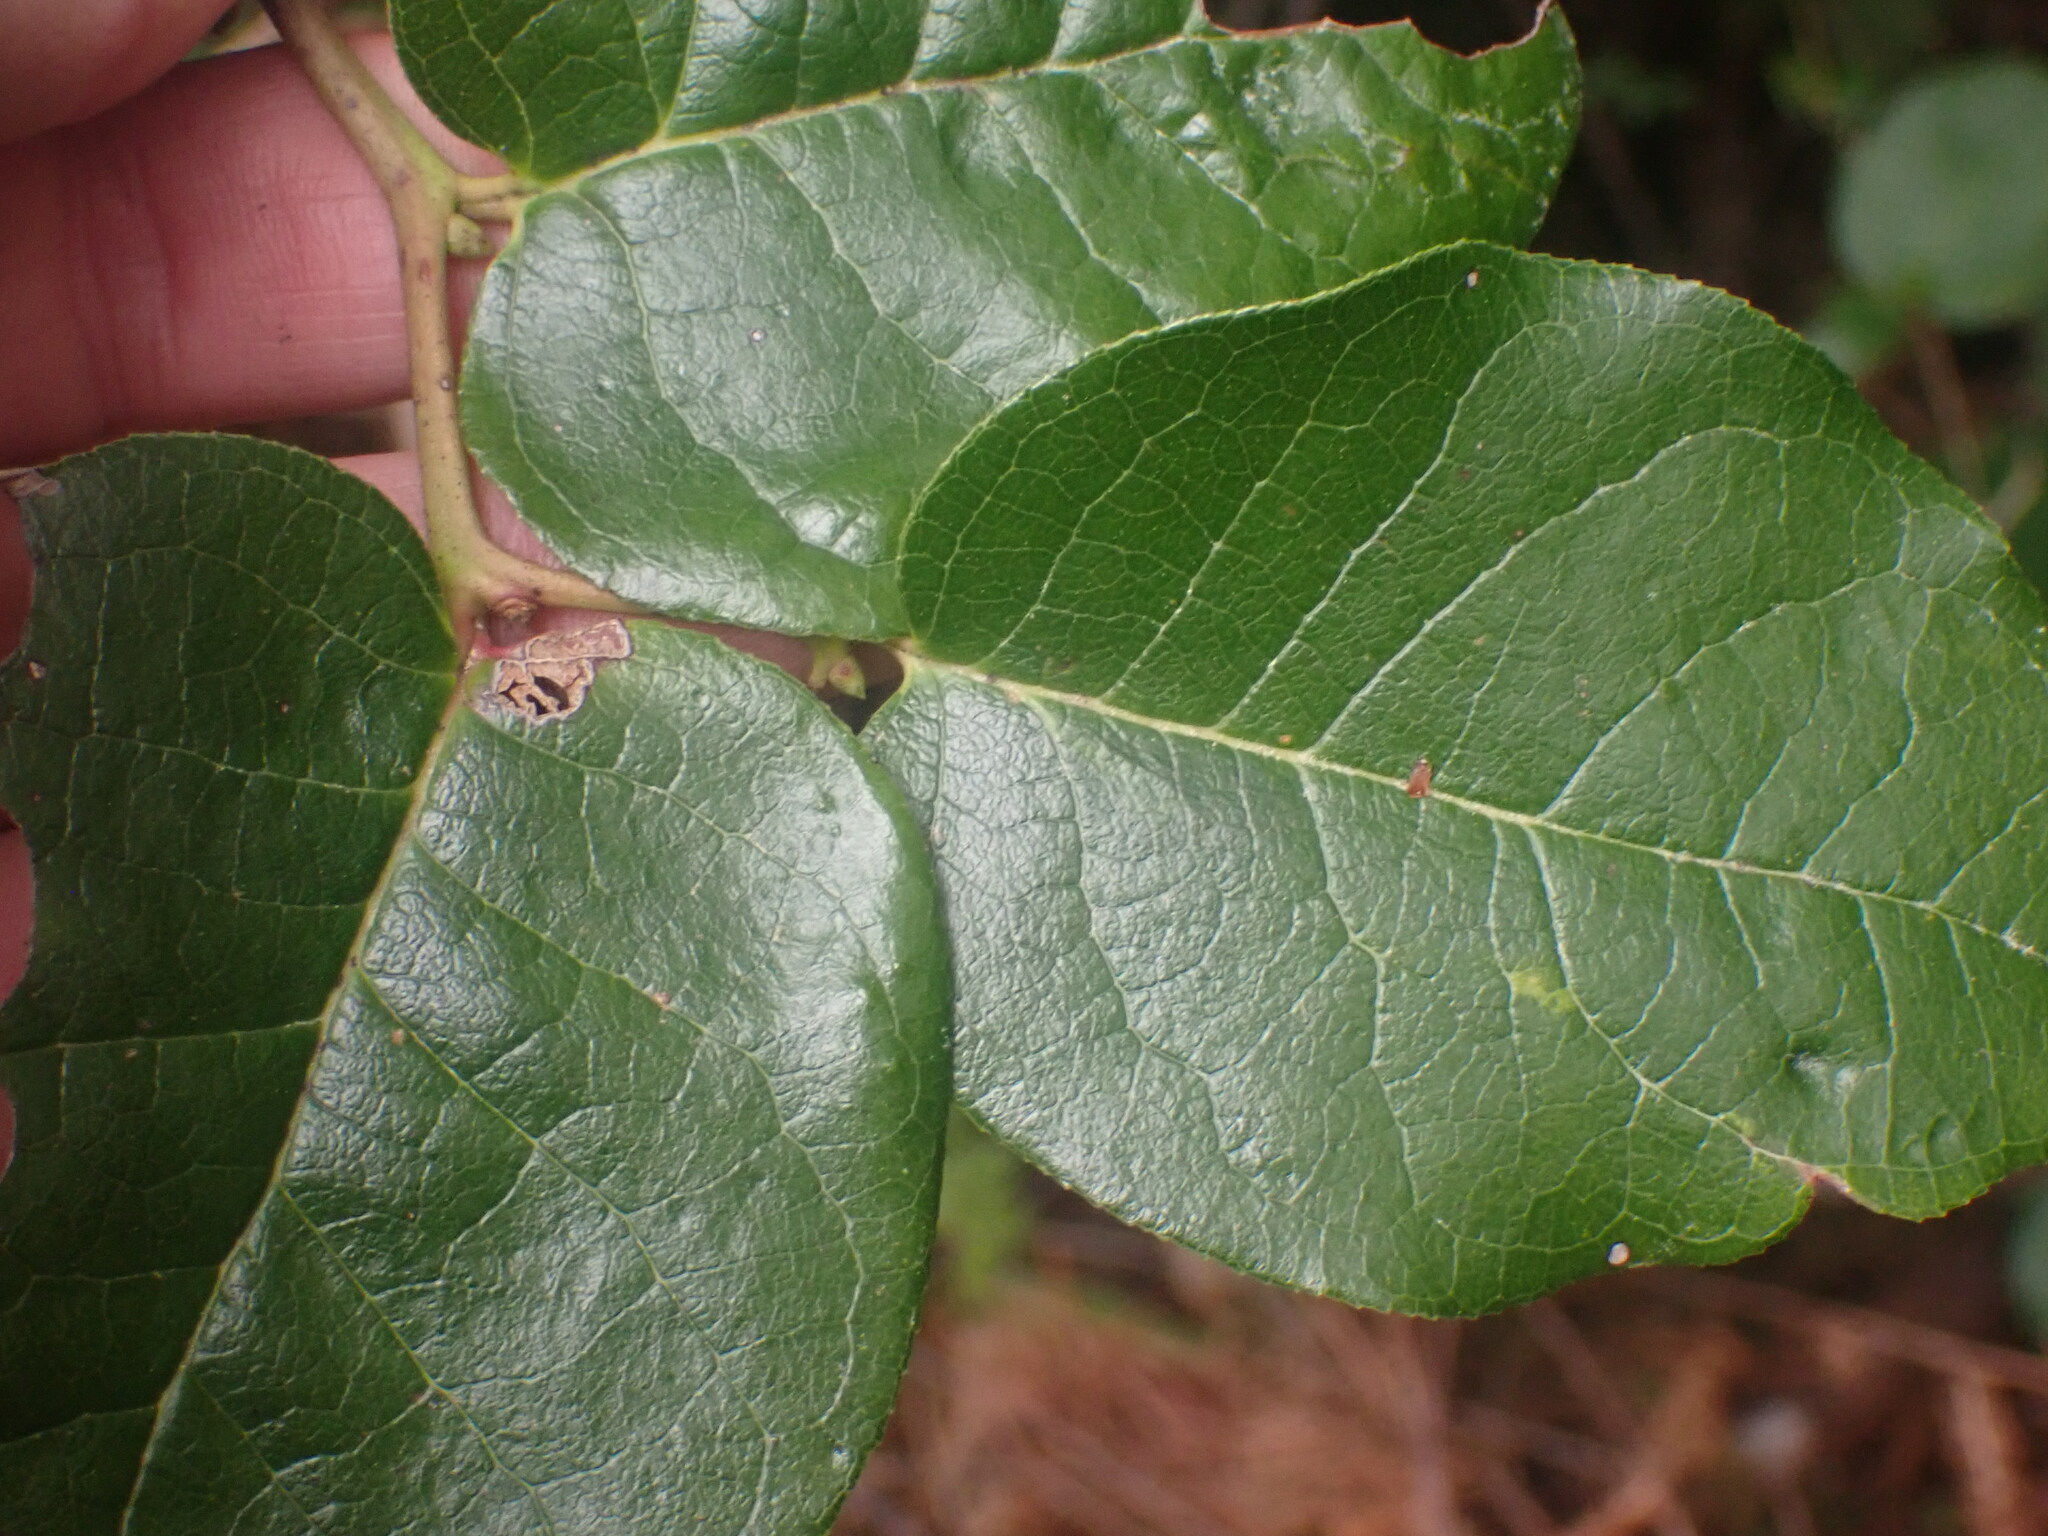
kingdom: Plantae
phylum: Tracheophyta
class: Magnoliopsida
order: Ericales
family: Ericaceae
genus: Gaultheria
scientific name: Gaultheria shallon
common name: Shallon
